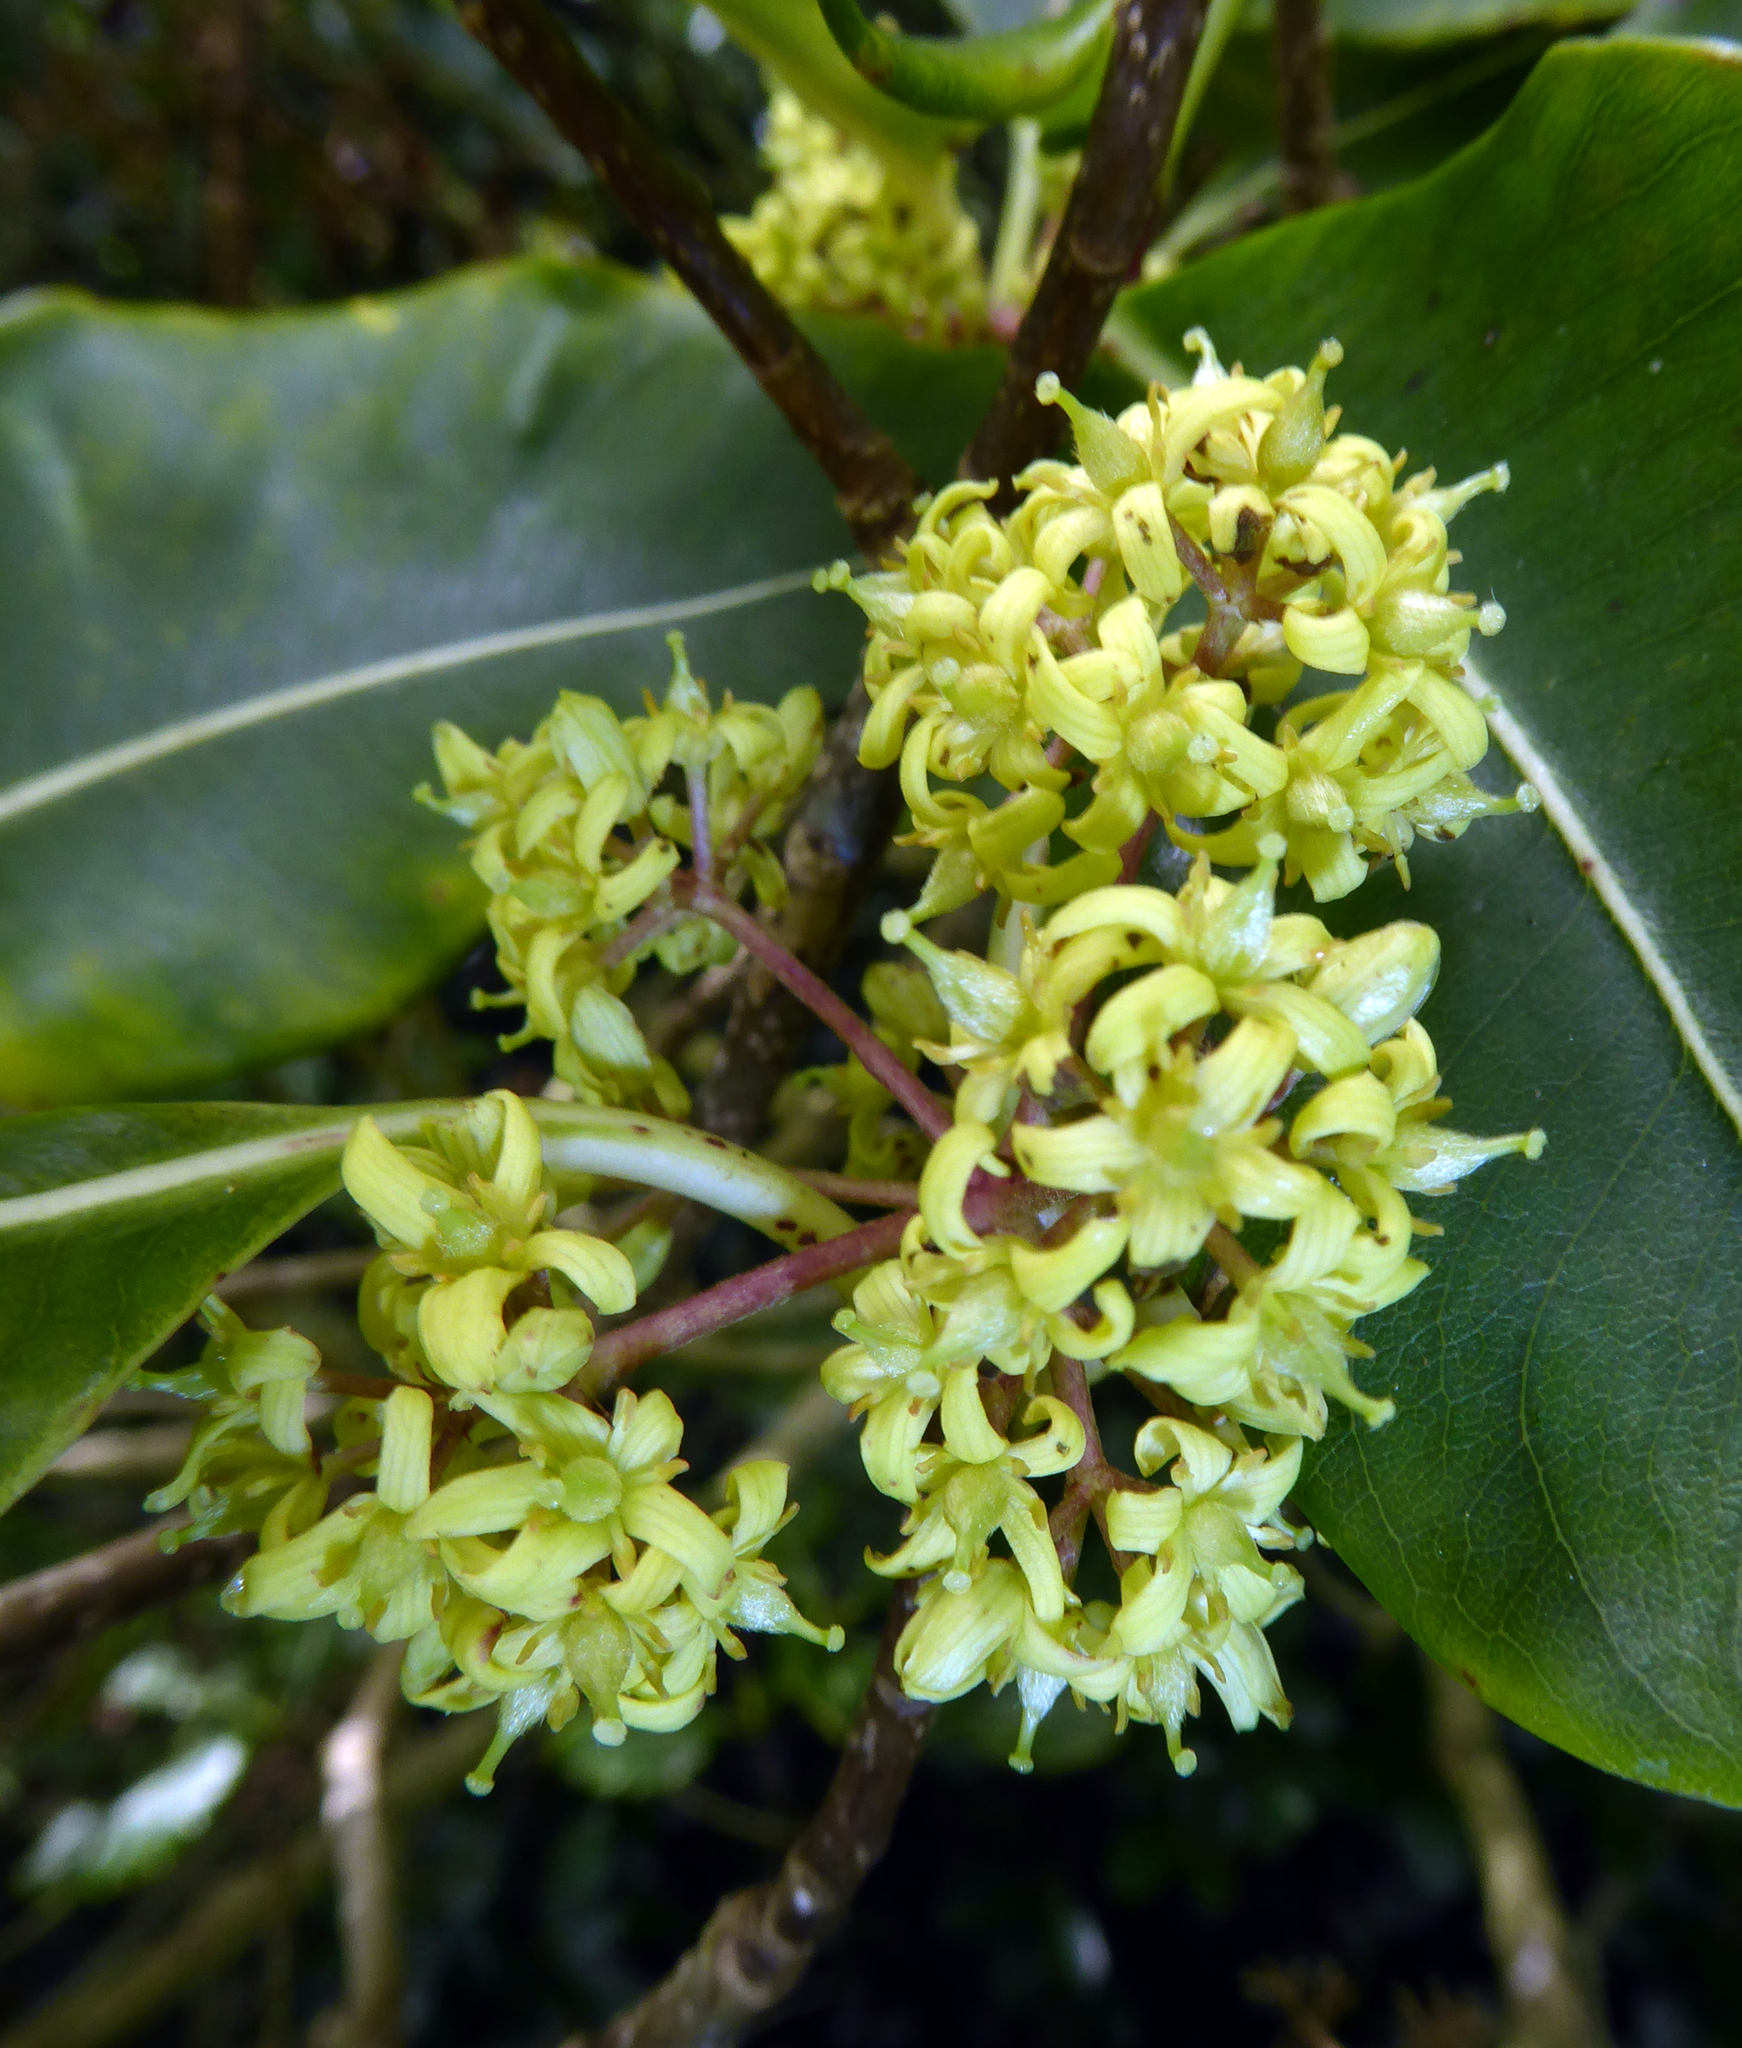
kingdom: Plantae
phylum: Tracheophyta
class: Magnoliopsida
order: Apiales
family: Pittosporaceae
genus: Pittosporum
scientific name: Pittosporum eugenioides
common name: Lemonwood
